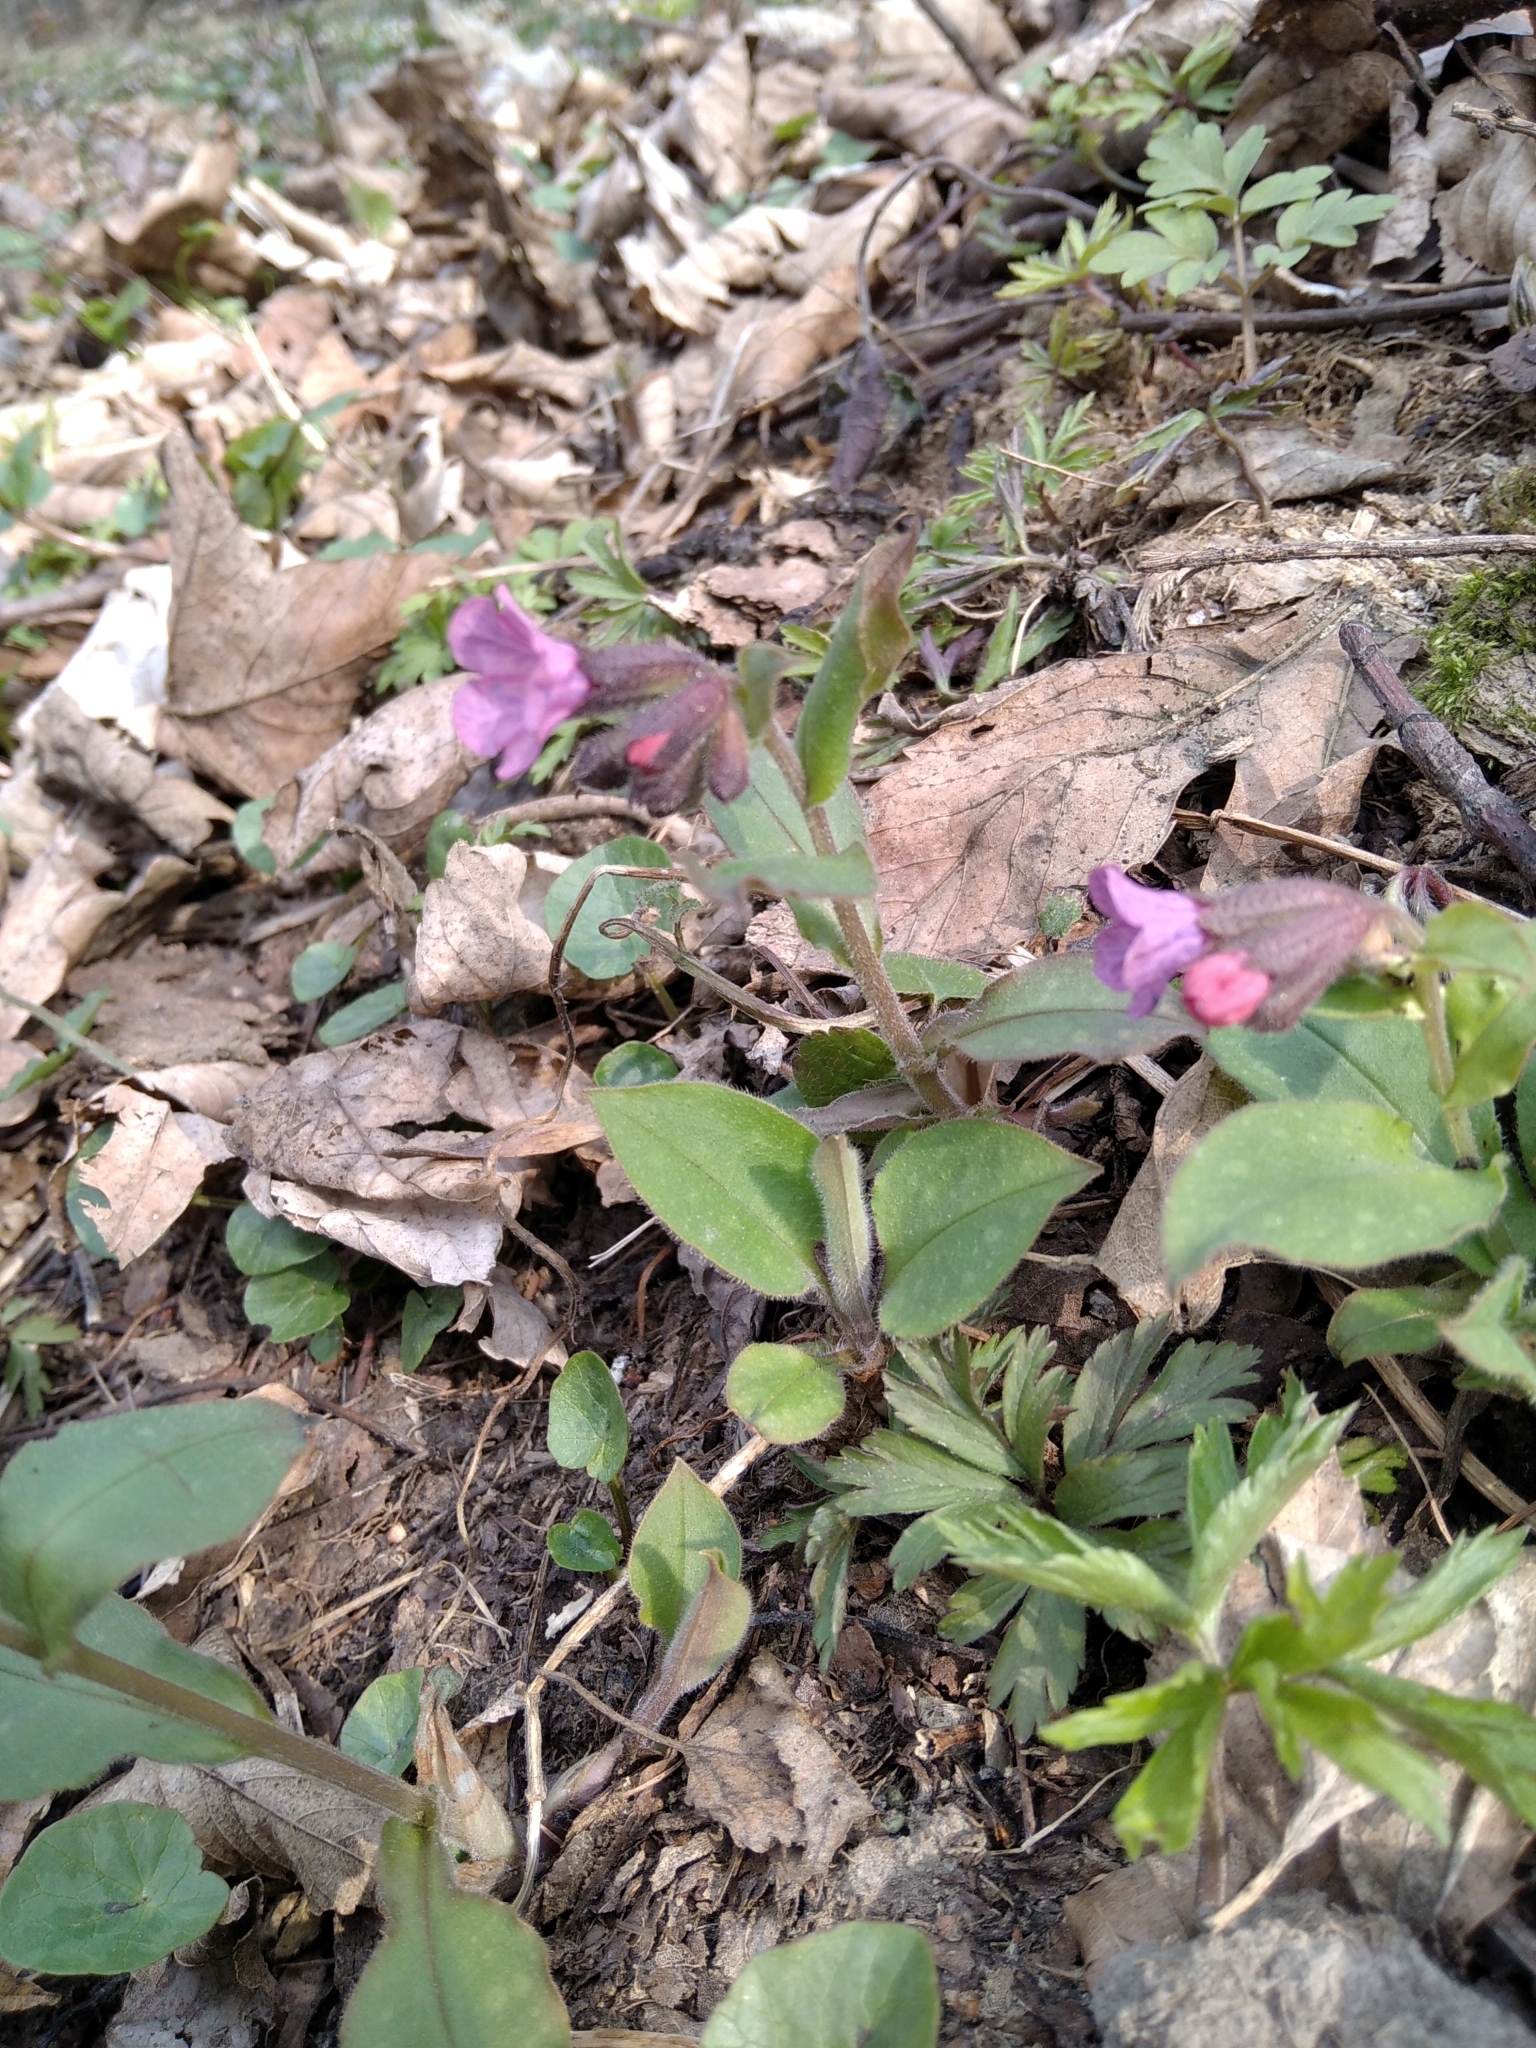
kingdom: Plantae
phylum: Tracheophyta
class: Magnoliopsida
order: Boraginales
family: Boraginaceae
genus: Pulmonaria
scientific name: Pulmonaria obscura
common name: Suffolk lungwort
